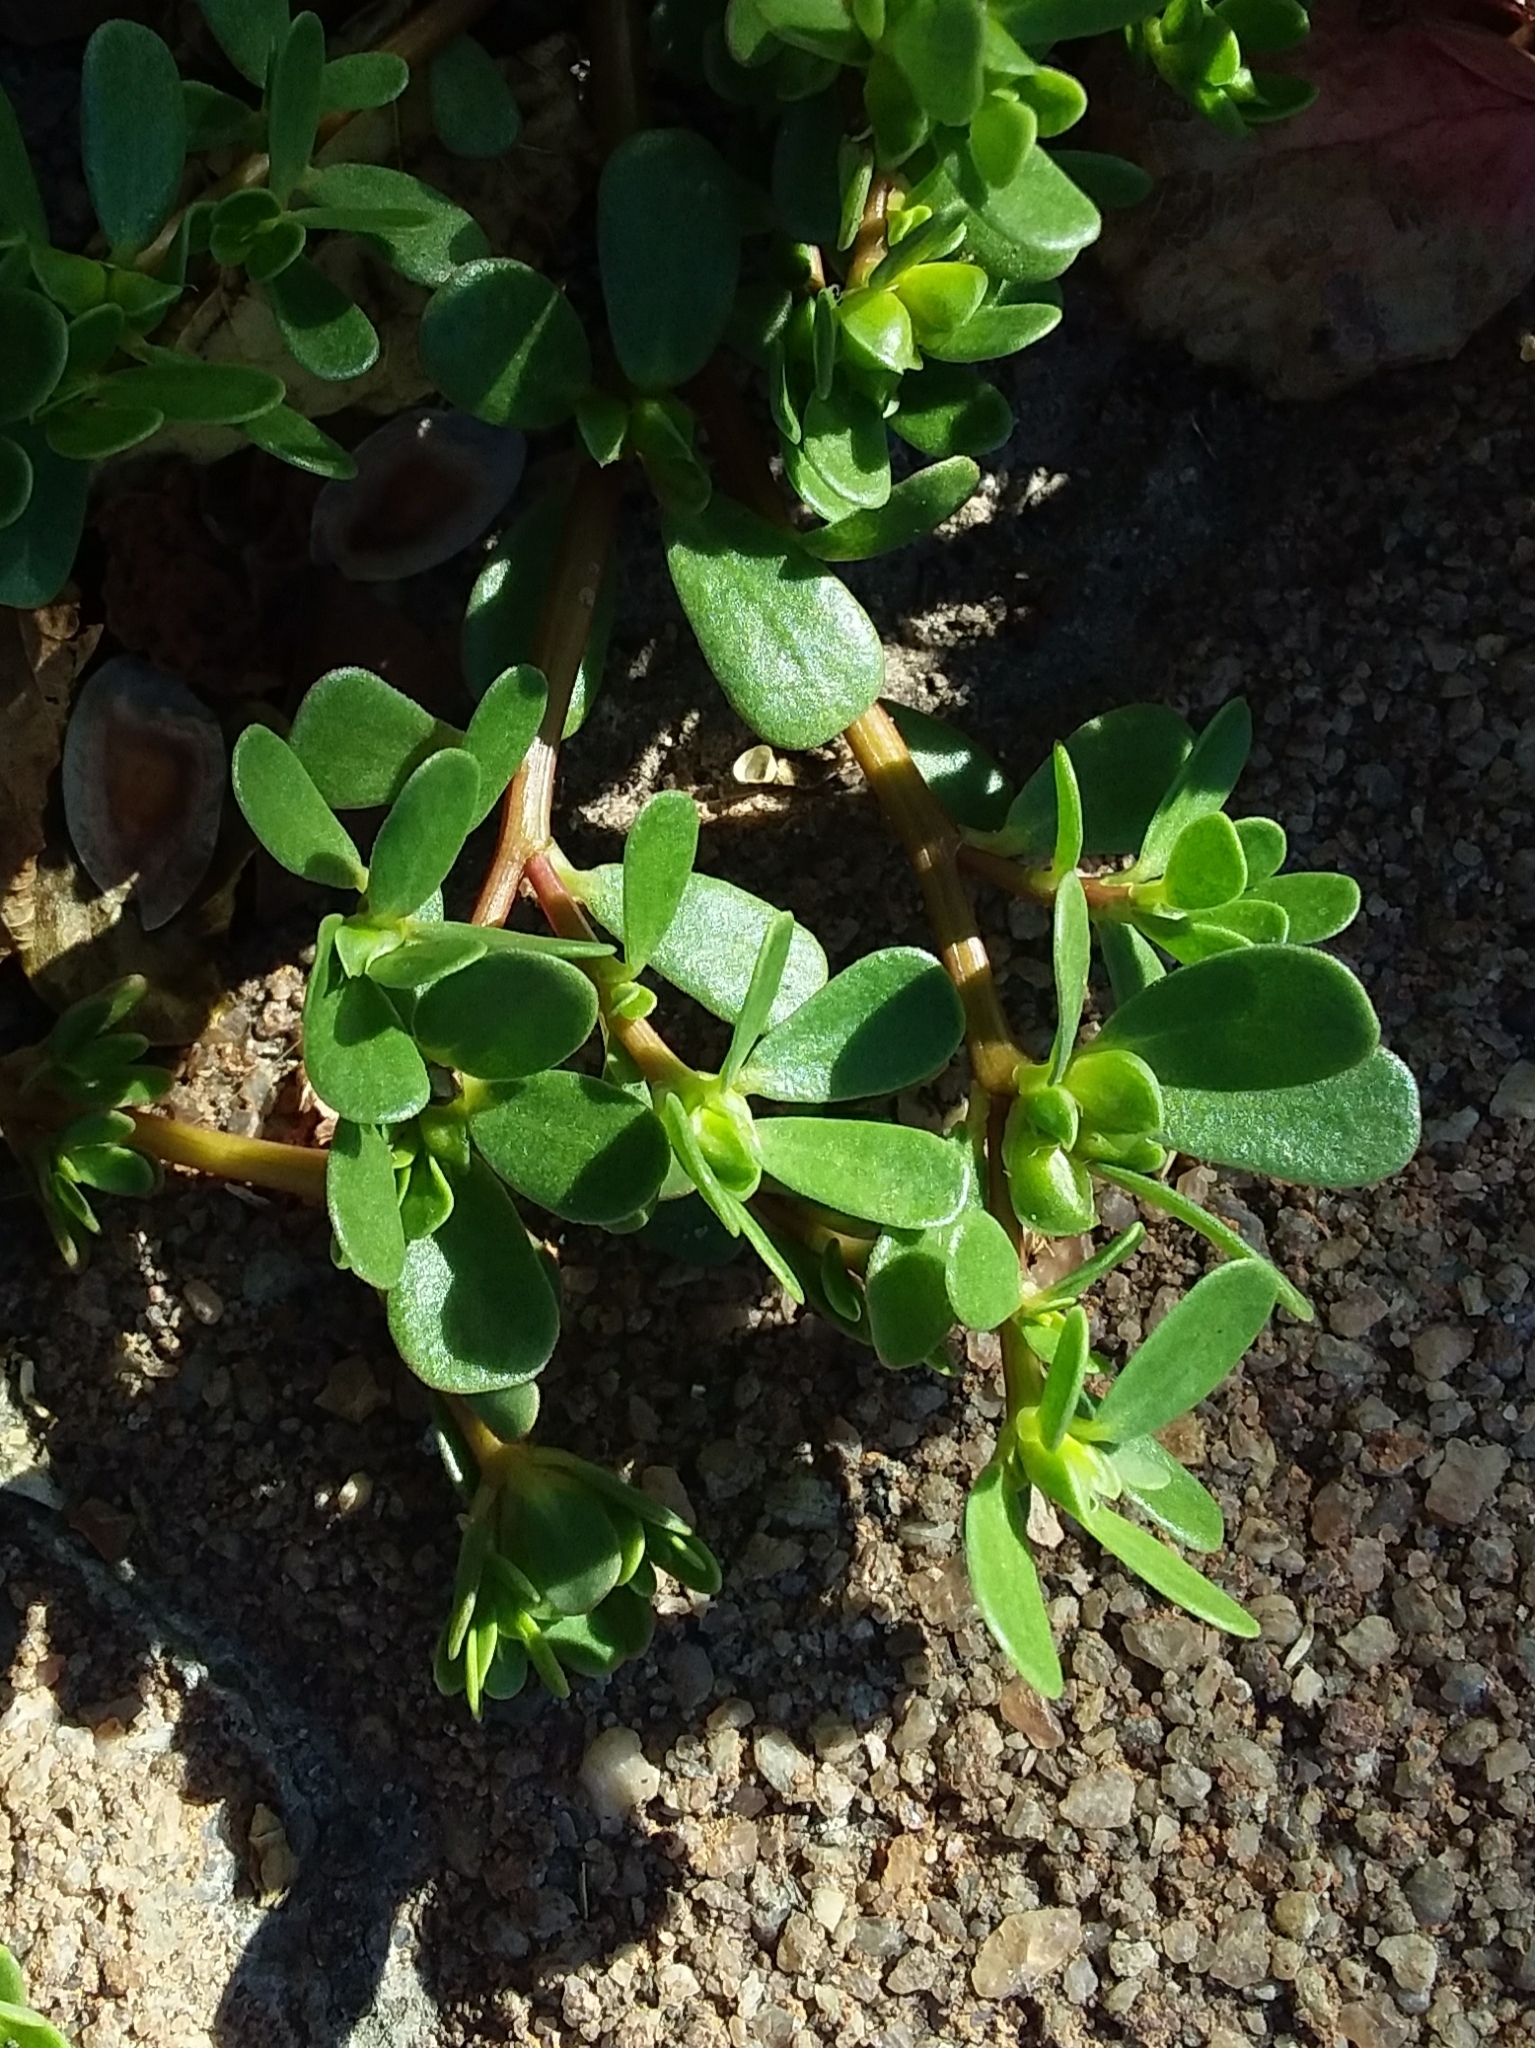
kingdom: Plantae
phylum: Tracheophyta
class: Magnoliopsida
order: Caryophyllales
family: Portulacaceae
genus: Portulaca
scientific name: Portulaca oleracea
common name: Common purslane
